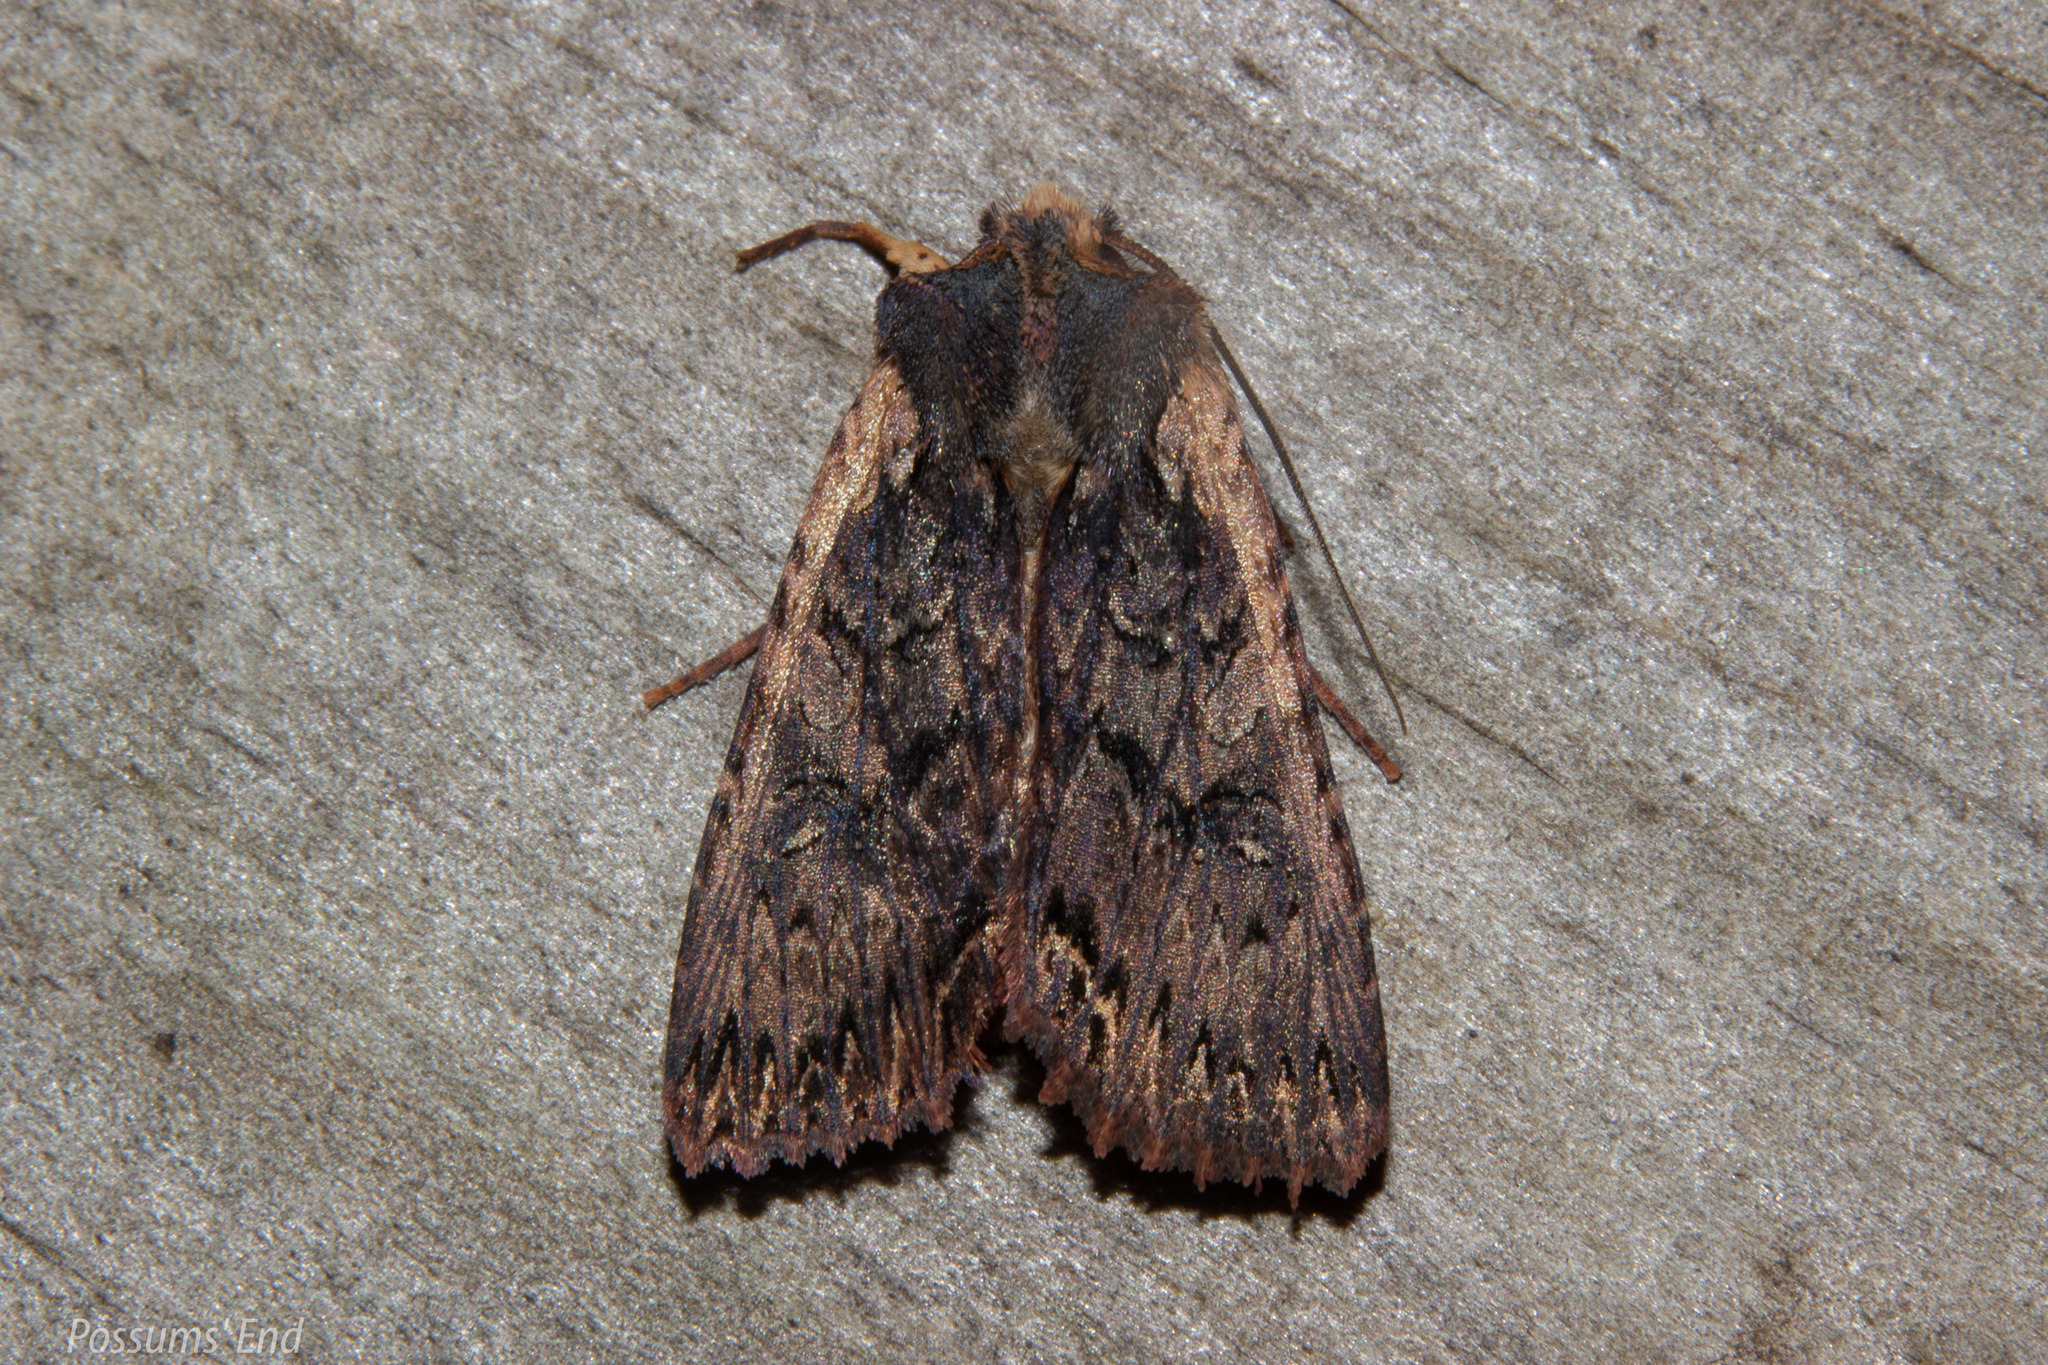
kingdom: Animalia
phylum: Arthropoda
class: Insecta
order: Lepidoptera
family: Noctuidae
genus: Meterana
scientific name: Meterana alcyone
